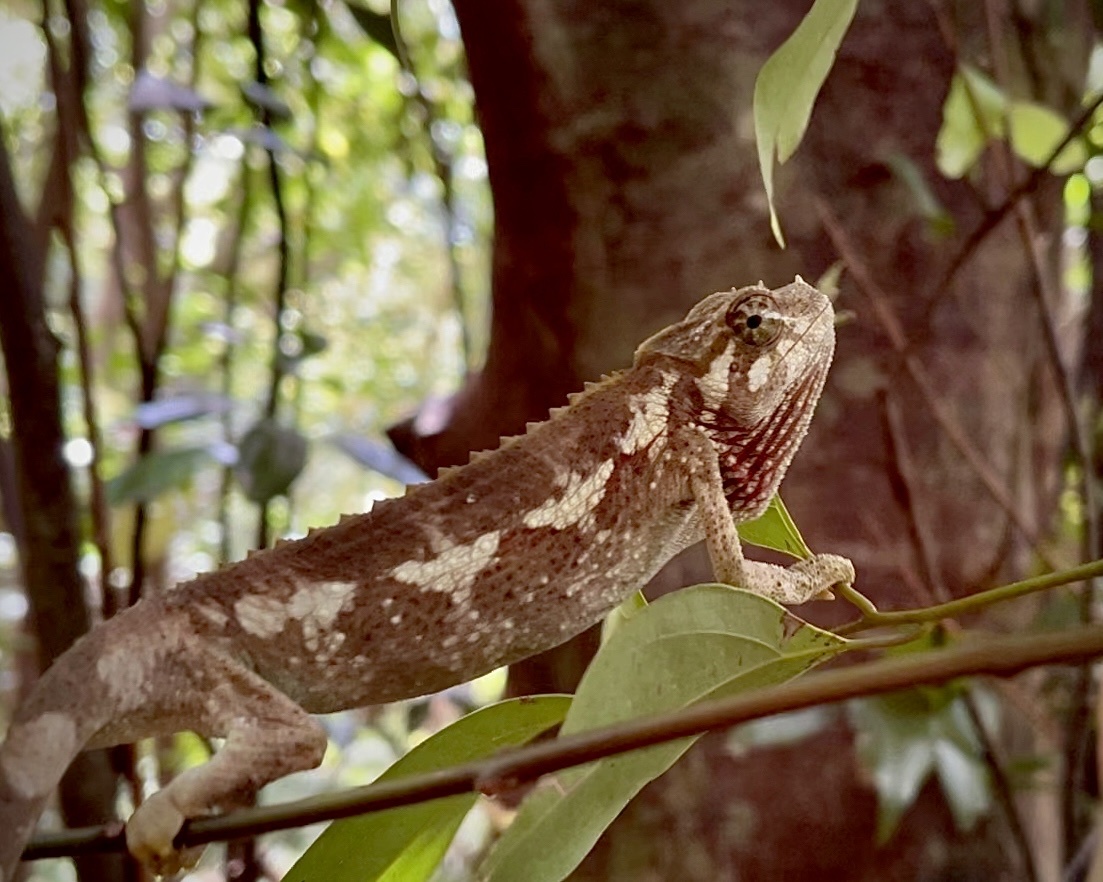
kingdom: Animalia
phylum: Chordata
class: Squamata
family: Chamaeleonidae
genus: Trioceros
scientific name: Trioceros jacksonii
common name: Jackson's chameleon
